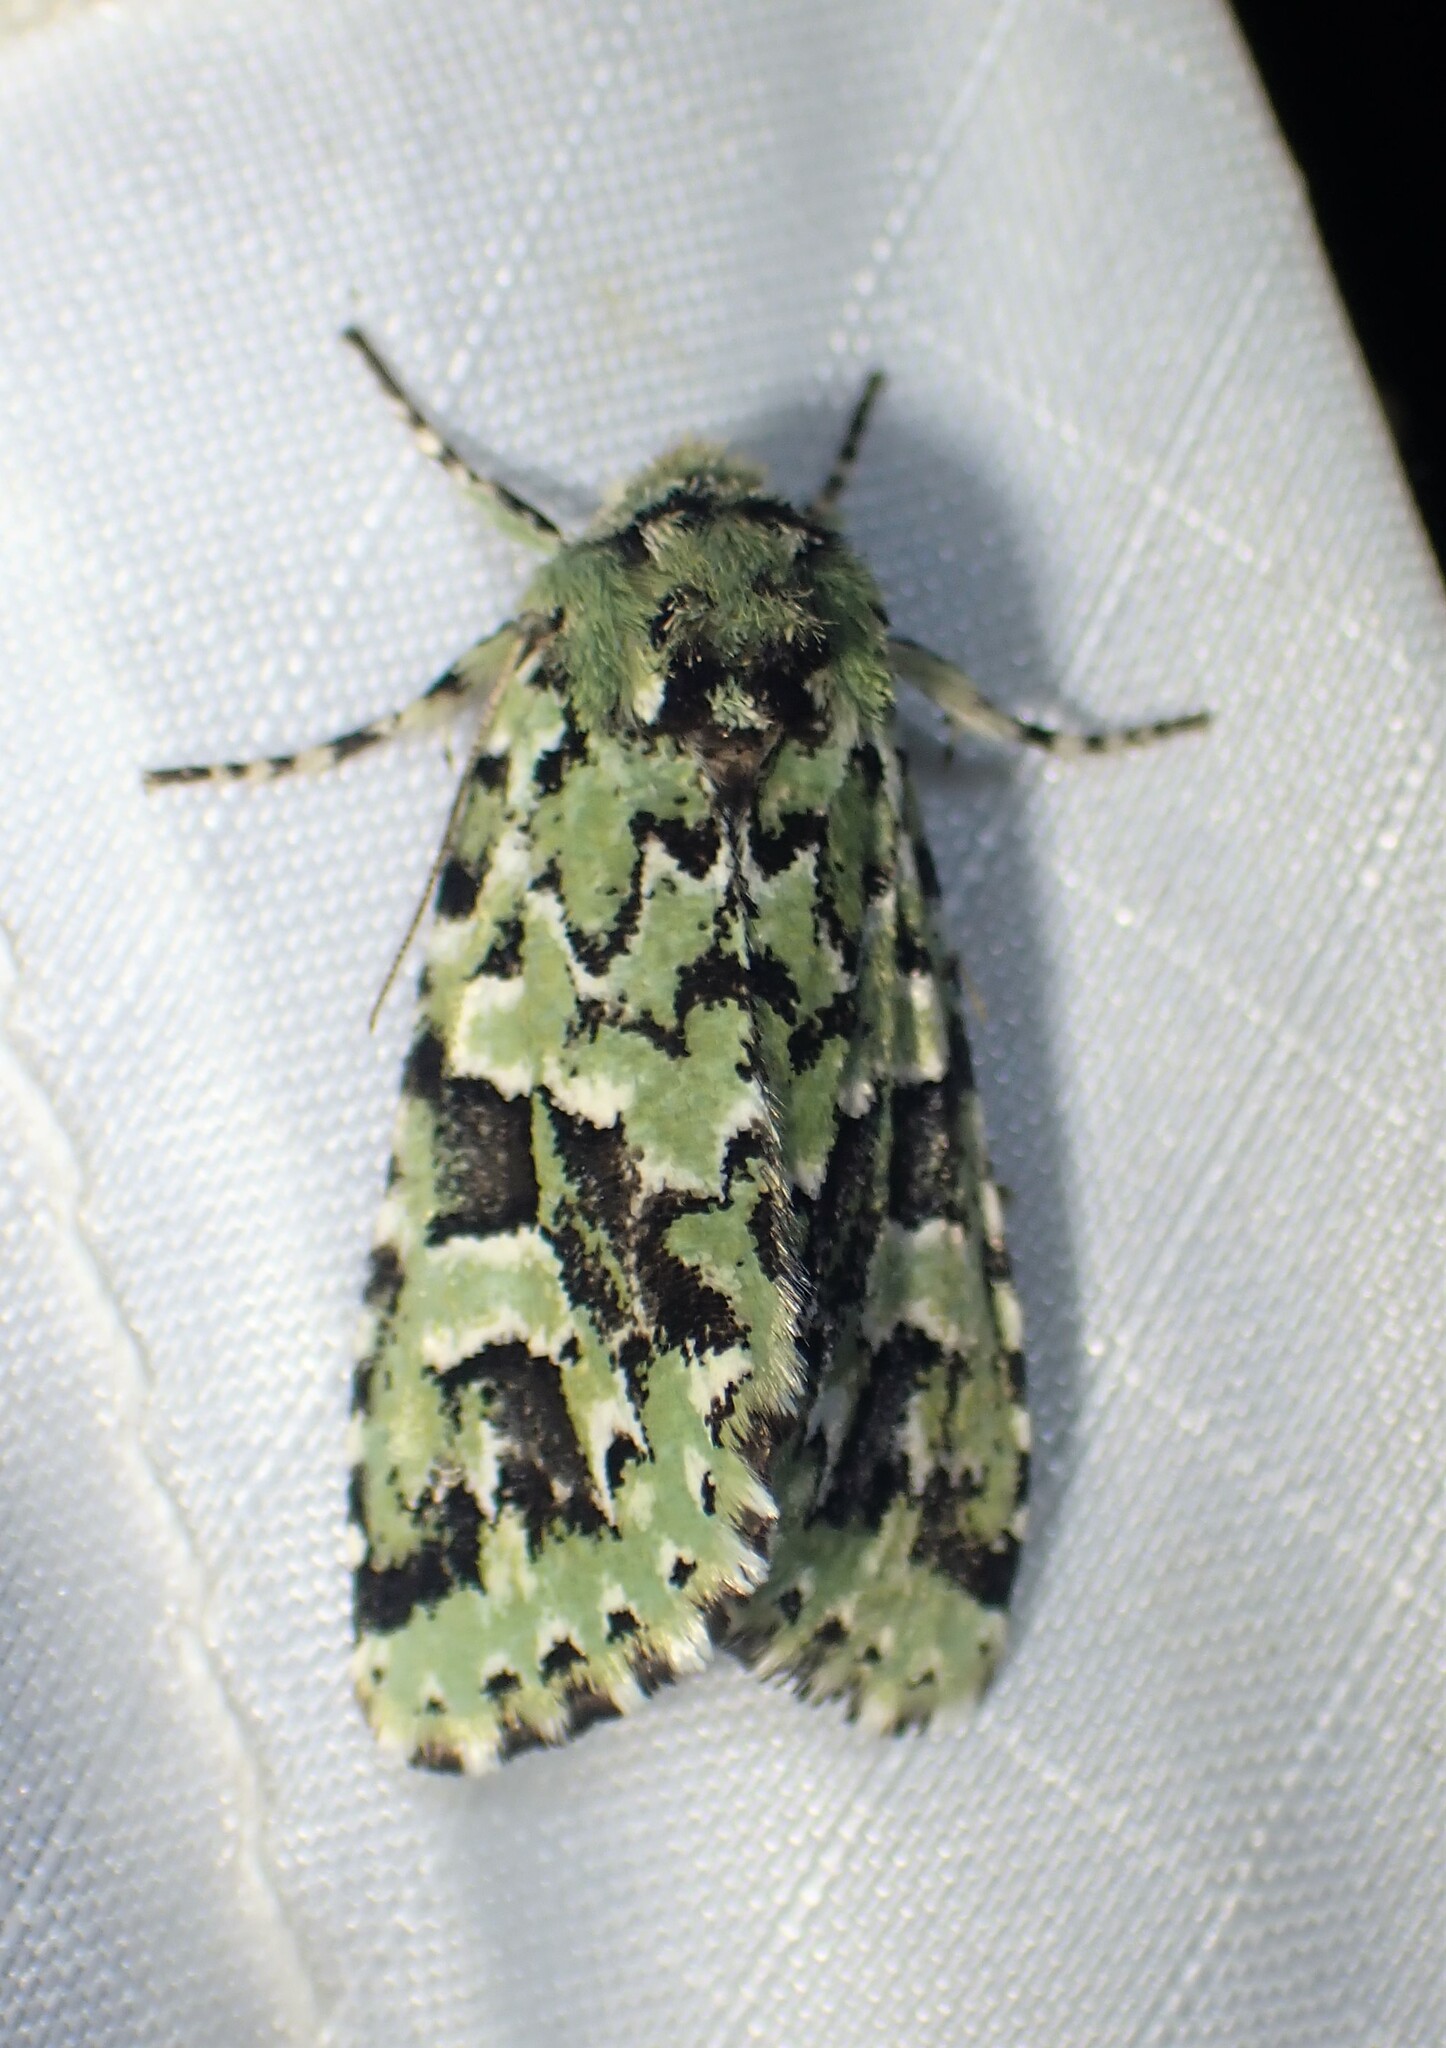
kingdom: Animalia
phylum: Arthropoda
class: Insecta
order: Lepidoptera
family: Noctuidae
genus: Feralia
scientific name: Feralia comstocki
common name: Comstock's sallow
